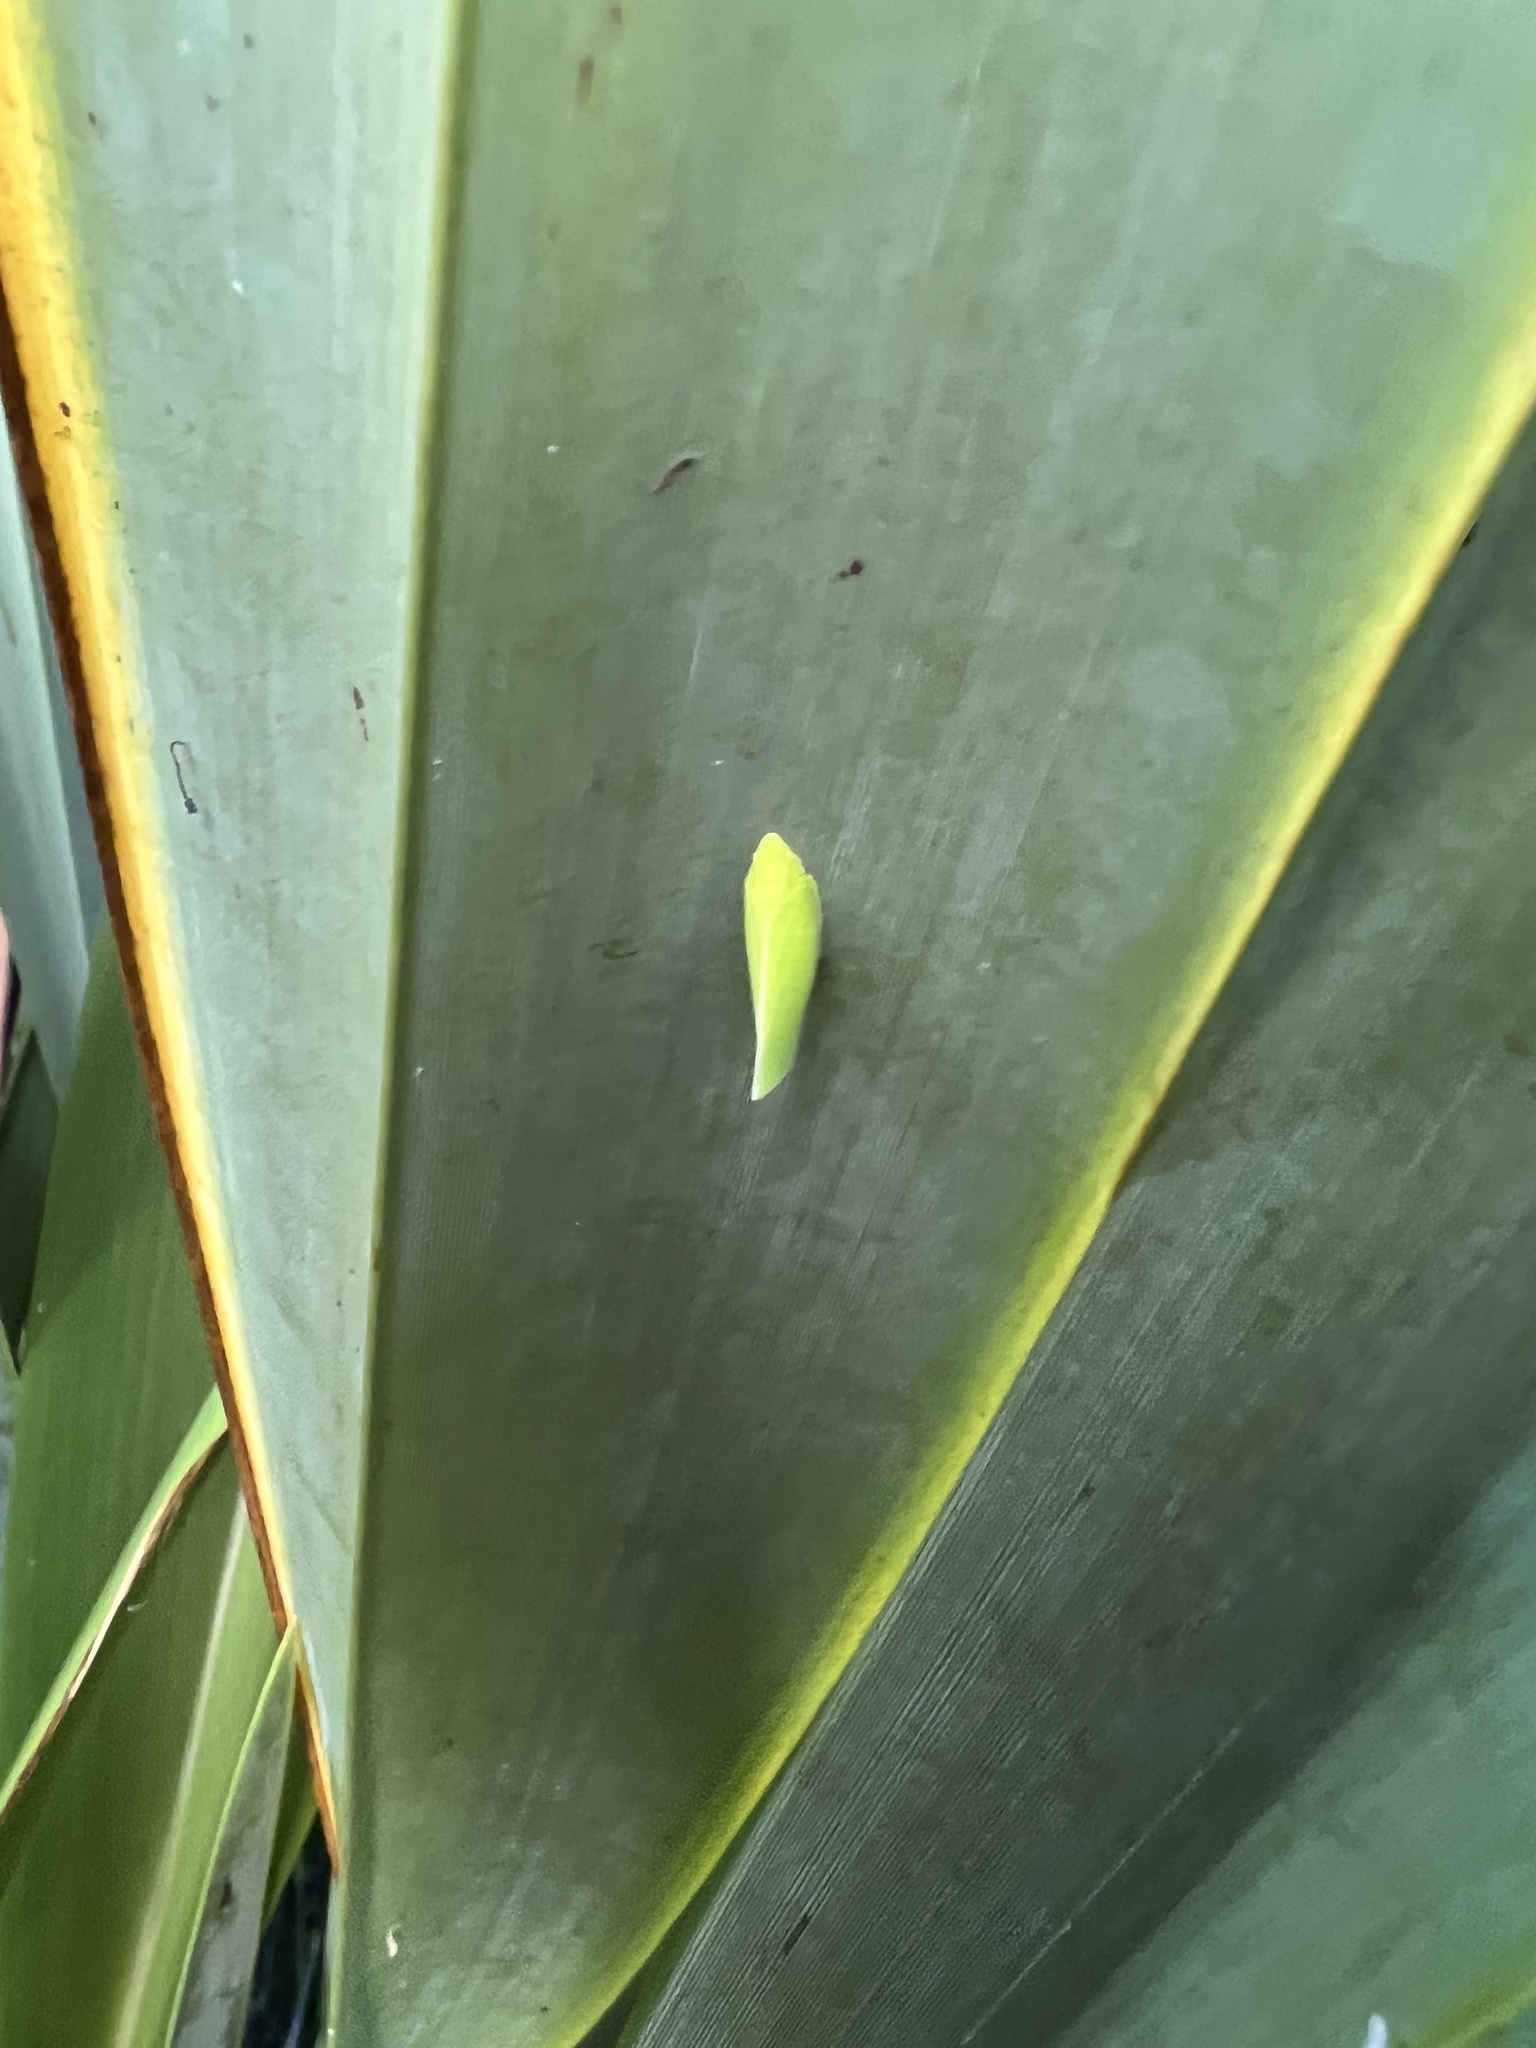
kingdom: Animalia
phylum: Arthropoda
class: Insecta
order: Hemiptera
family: Flatidae
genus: Siphanta
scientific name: Siphanta acuta
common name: Torpedo bug
